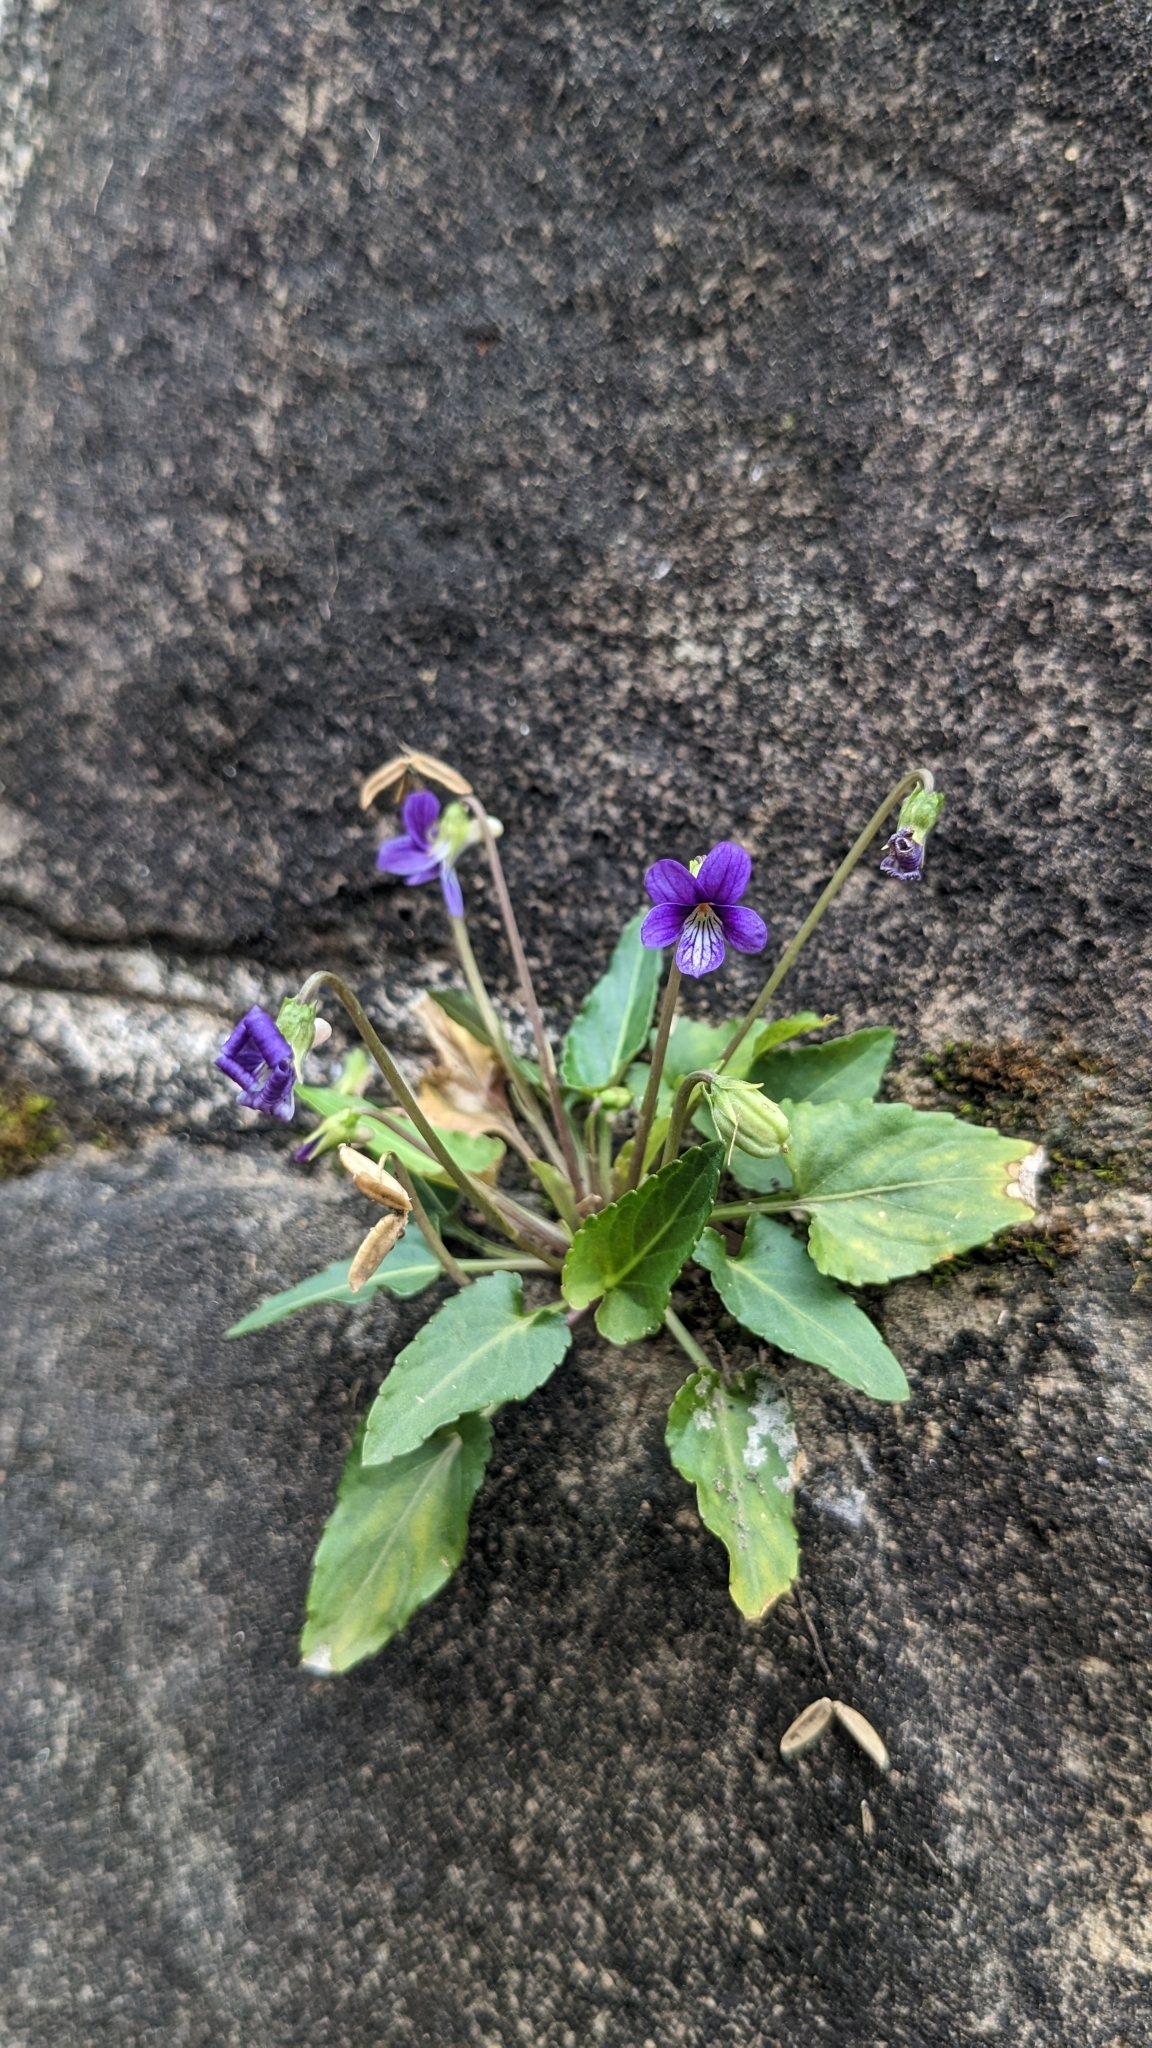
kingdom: Plantae
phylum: Tracheophyta
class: Magnoliopsida
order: Malpighiales
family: Violaceae
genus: Viola
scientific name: Viola inconspicua
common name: Long sepal violet
